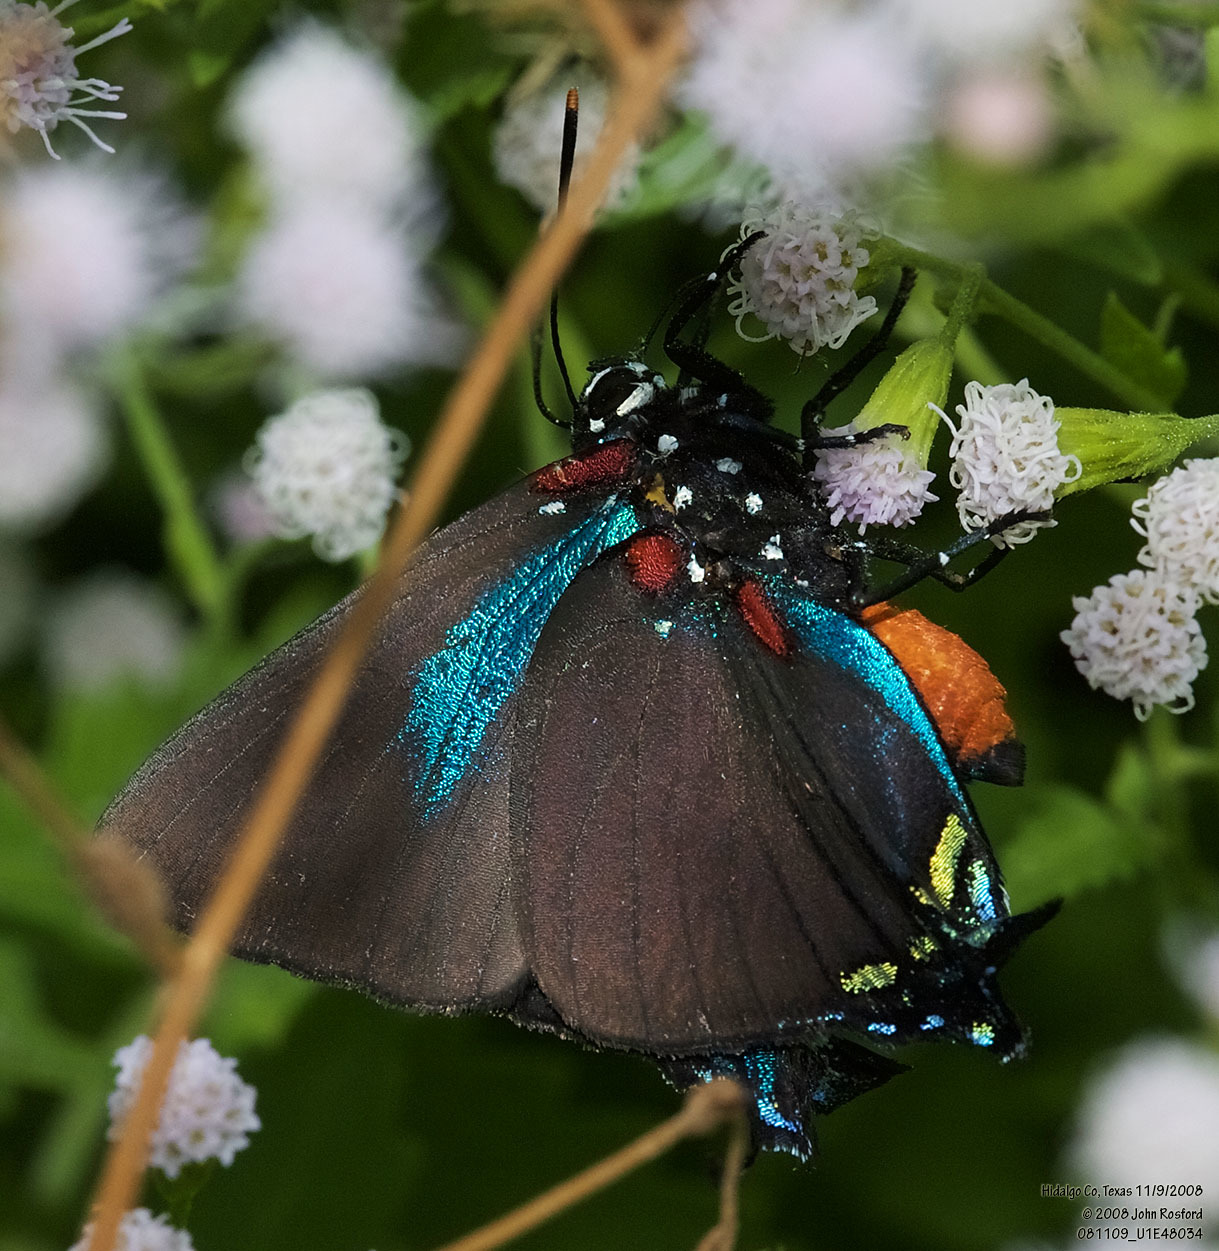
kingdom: Animalia
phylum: Arthropoda
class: Insecta
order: Lepidoptera
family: Lycaenidae
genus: Atlides
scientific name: Atlides halesus
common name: Great purple hairstreak
